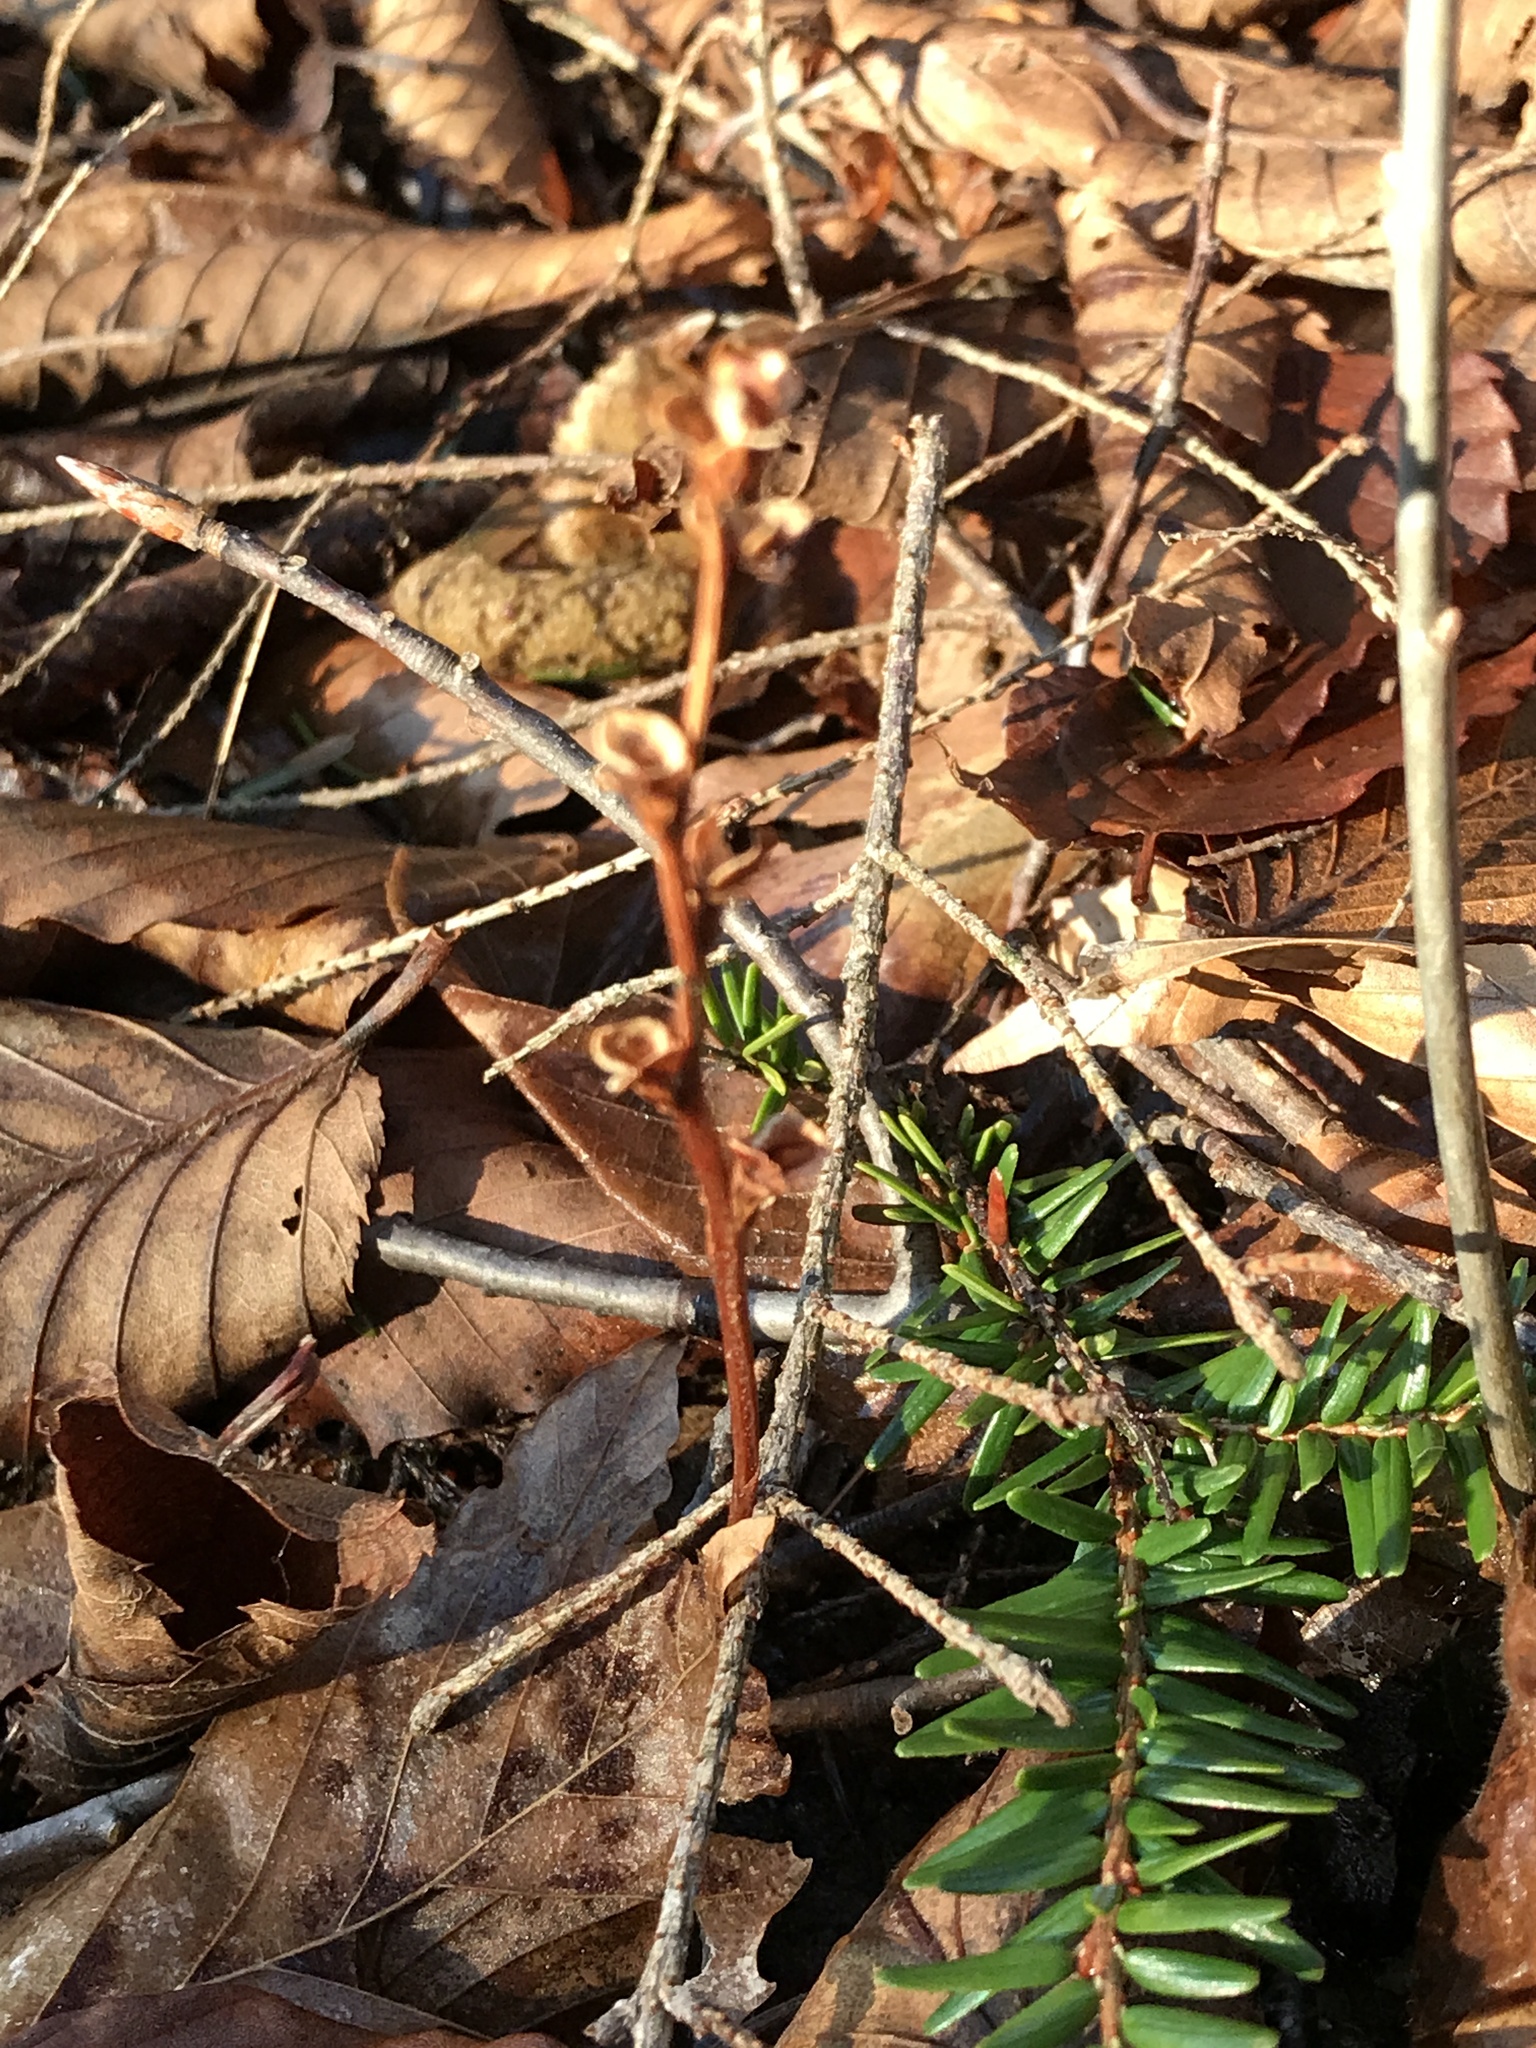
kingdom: Plantae
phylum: Tracheophyta
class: Magnoliopsida
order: Lamiales
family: Orobanchaceae
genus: Epifagus
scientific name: Epifagus virginiana
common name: Beechdrops
